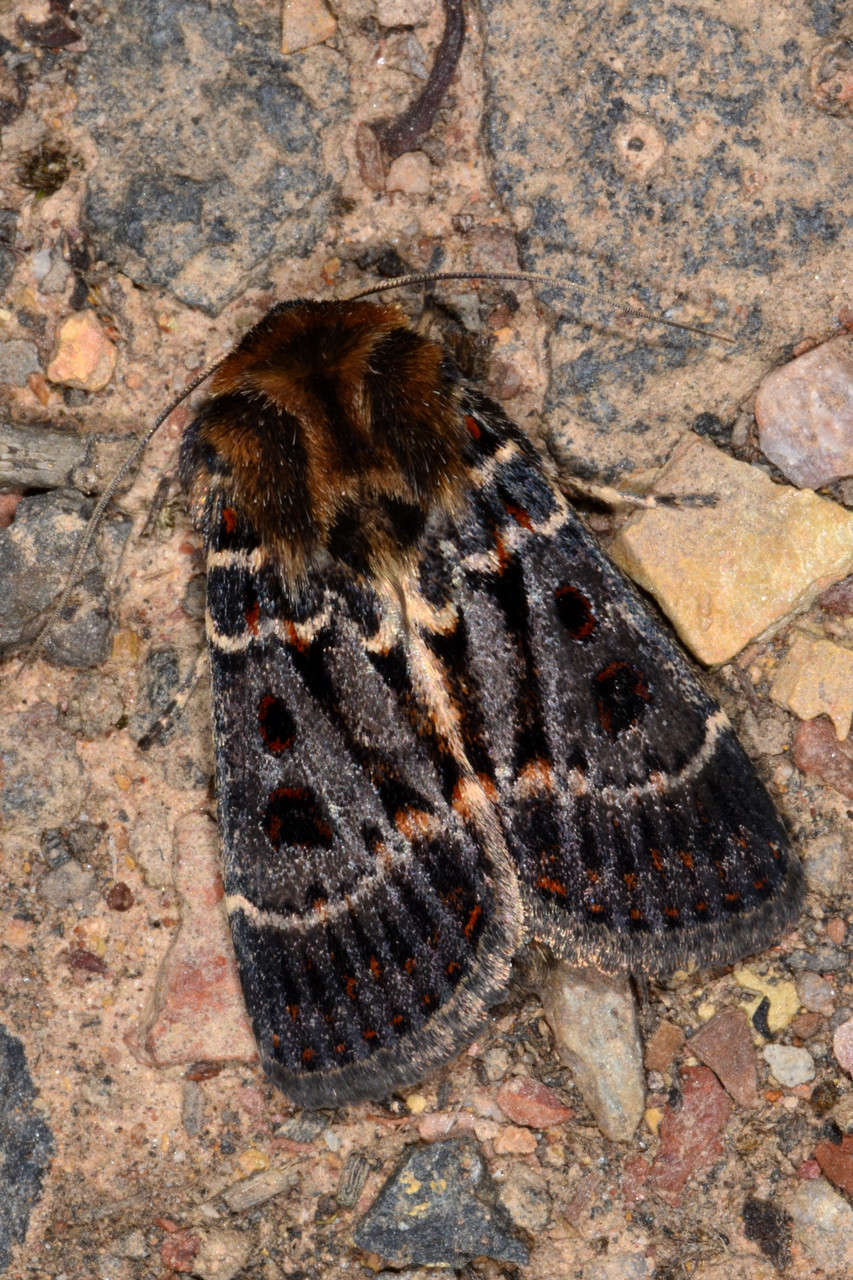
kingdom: Animalia
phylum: Arthropoda
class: Insecta
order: Lepidoptera
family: Noctuidae
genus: Proteuxoa
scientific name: Proteuxoa sanguinipuncta
